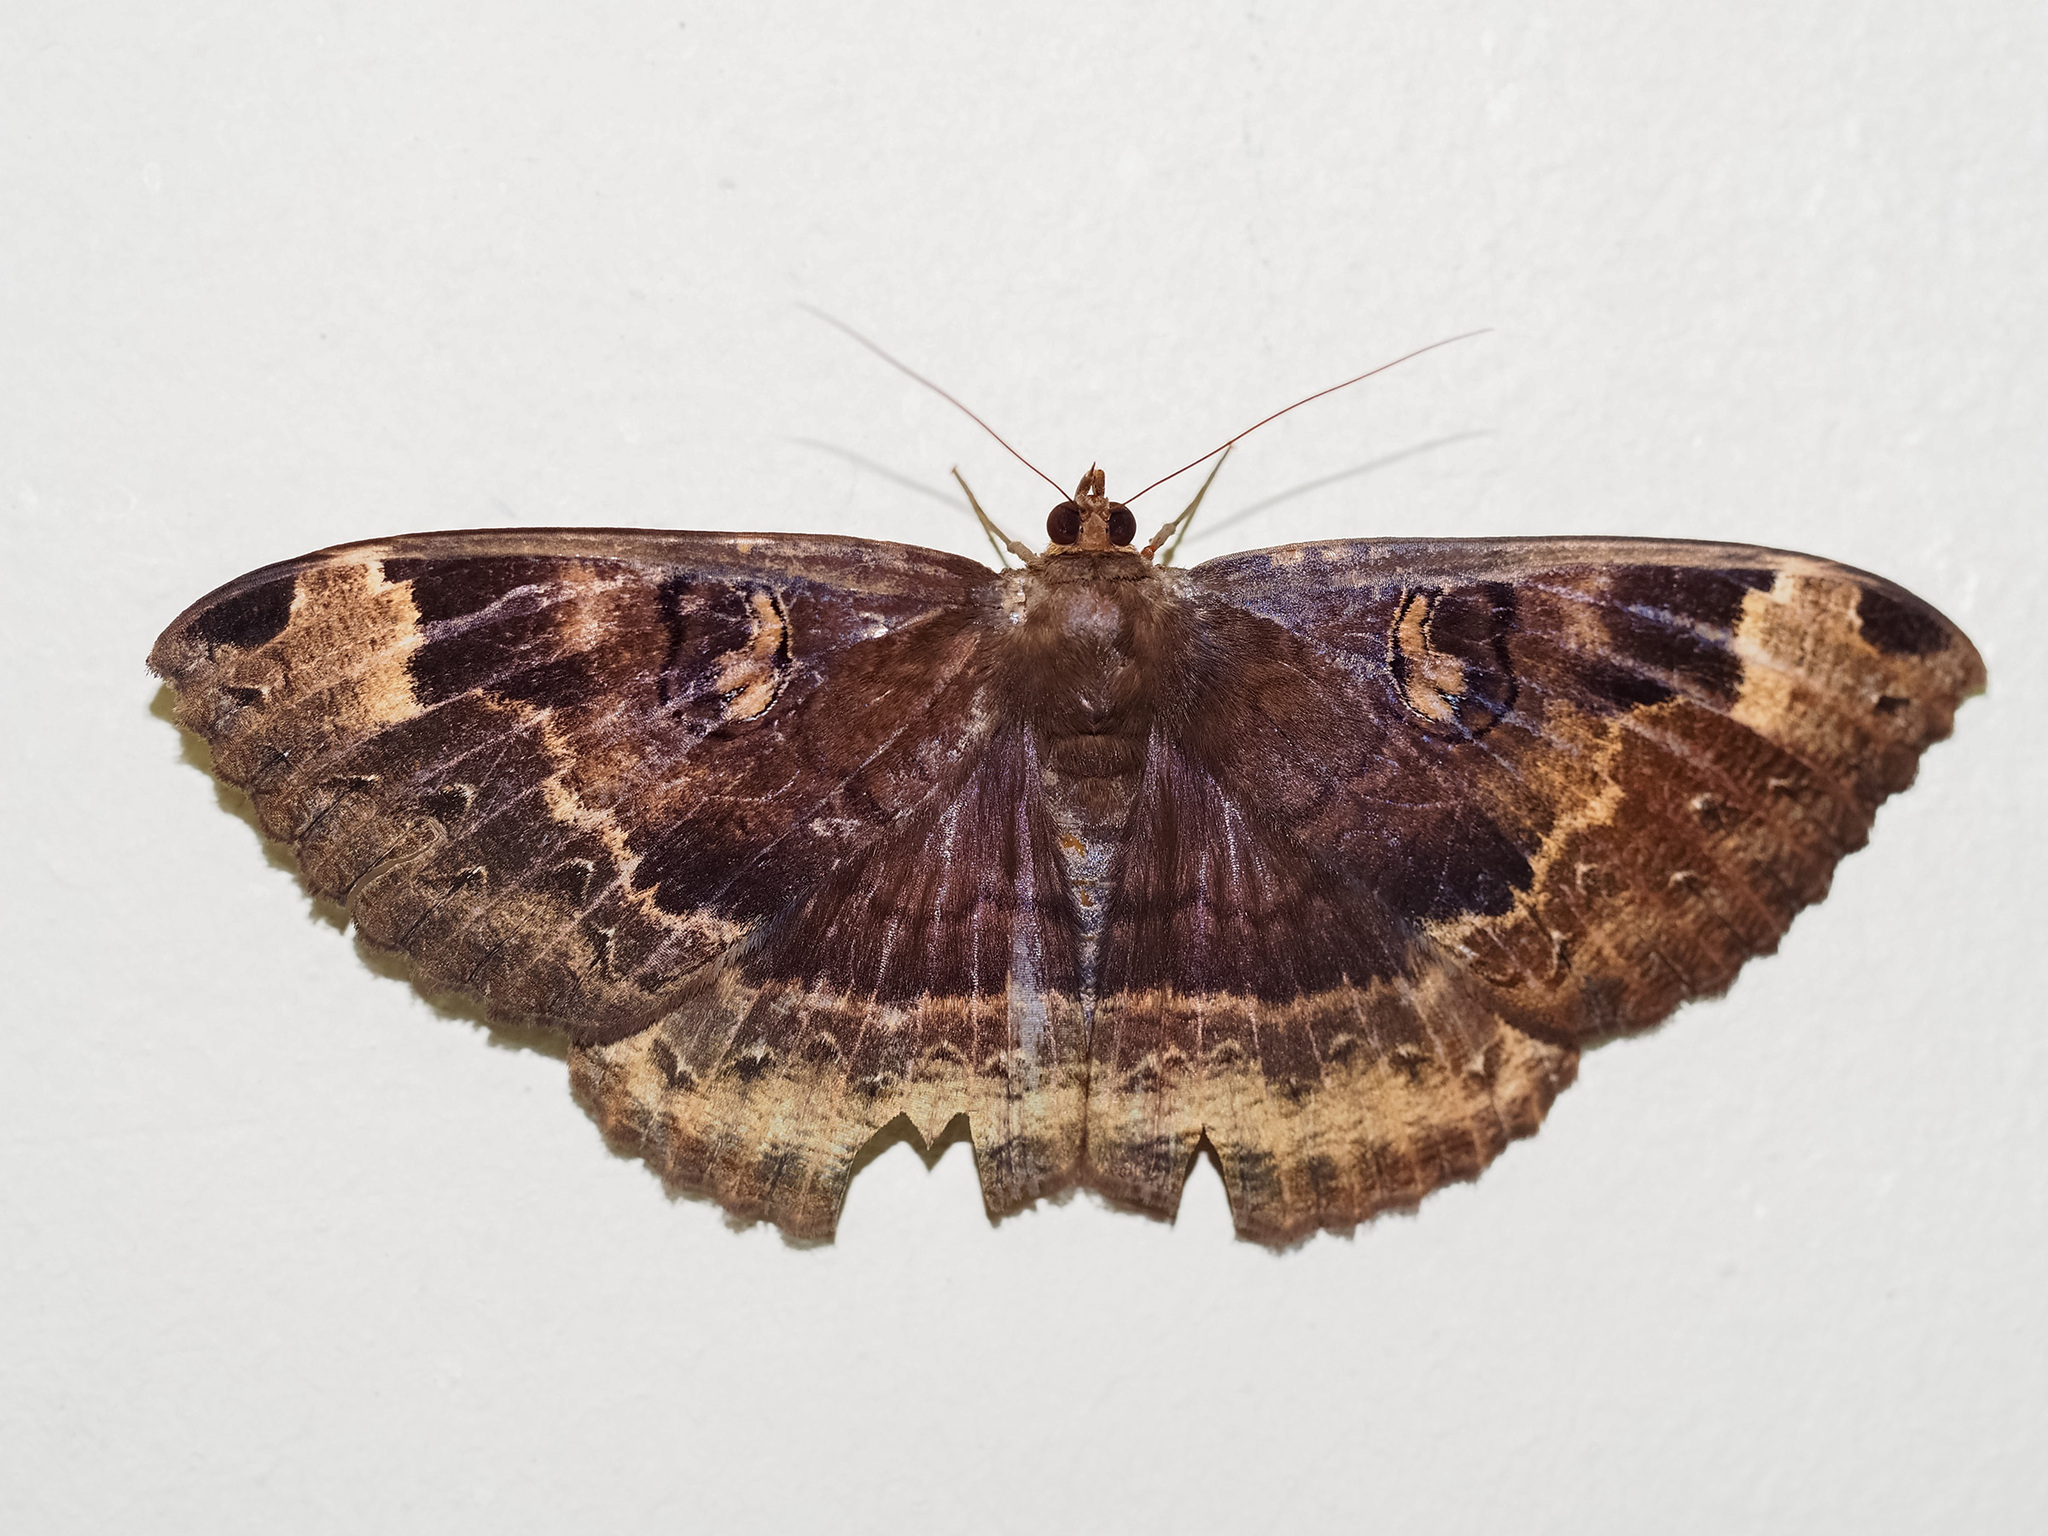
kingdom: Animalia
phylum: Arthropoda
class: Insecta
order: Lepidoptera
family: Erebidae
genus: Erebus
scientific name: Erebus caprimulgus
